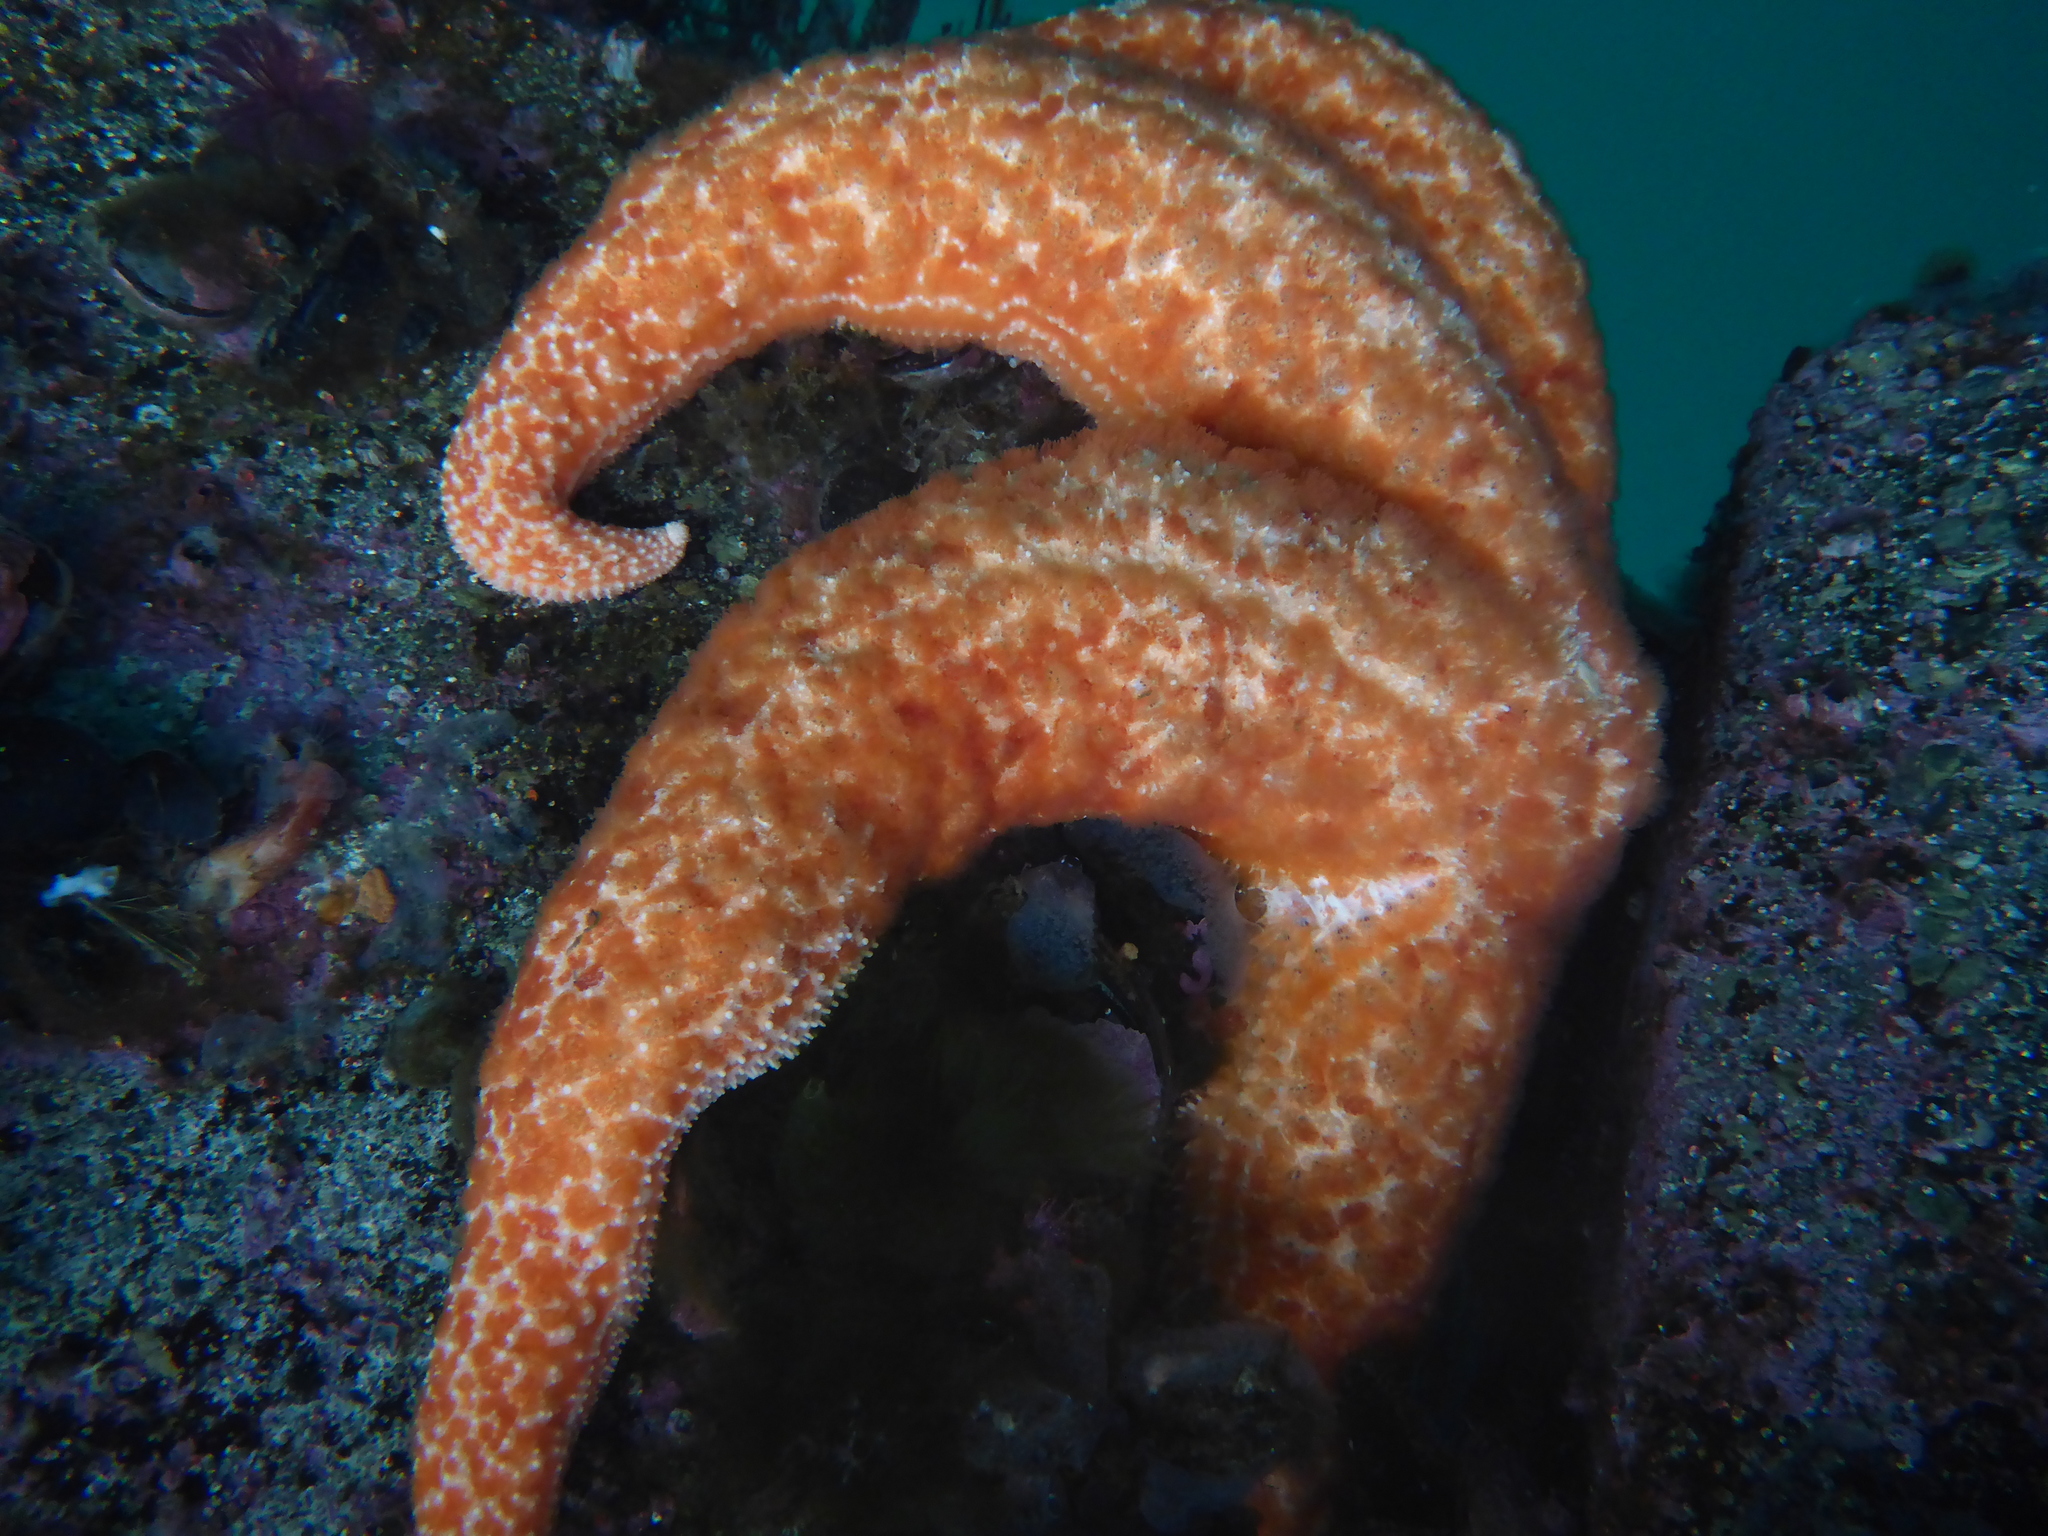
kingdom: Animalia
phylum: Echinodermata
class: Asteroidea
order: Forcipulatida
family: Asteriidae
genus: Evasterias
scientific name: Evasterias troschelii
